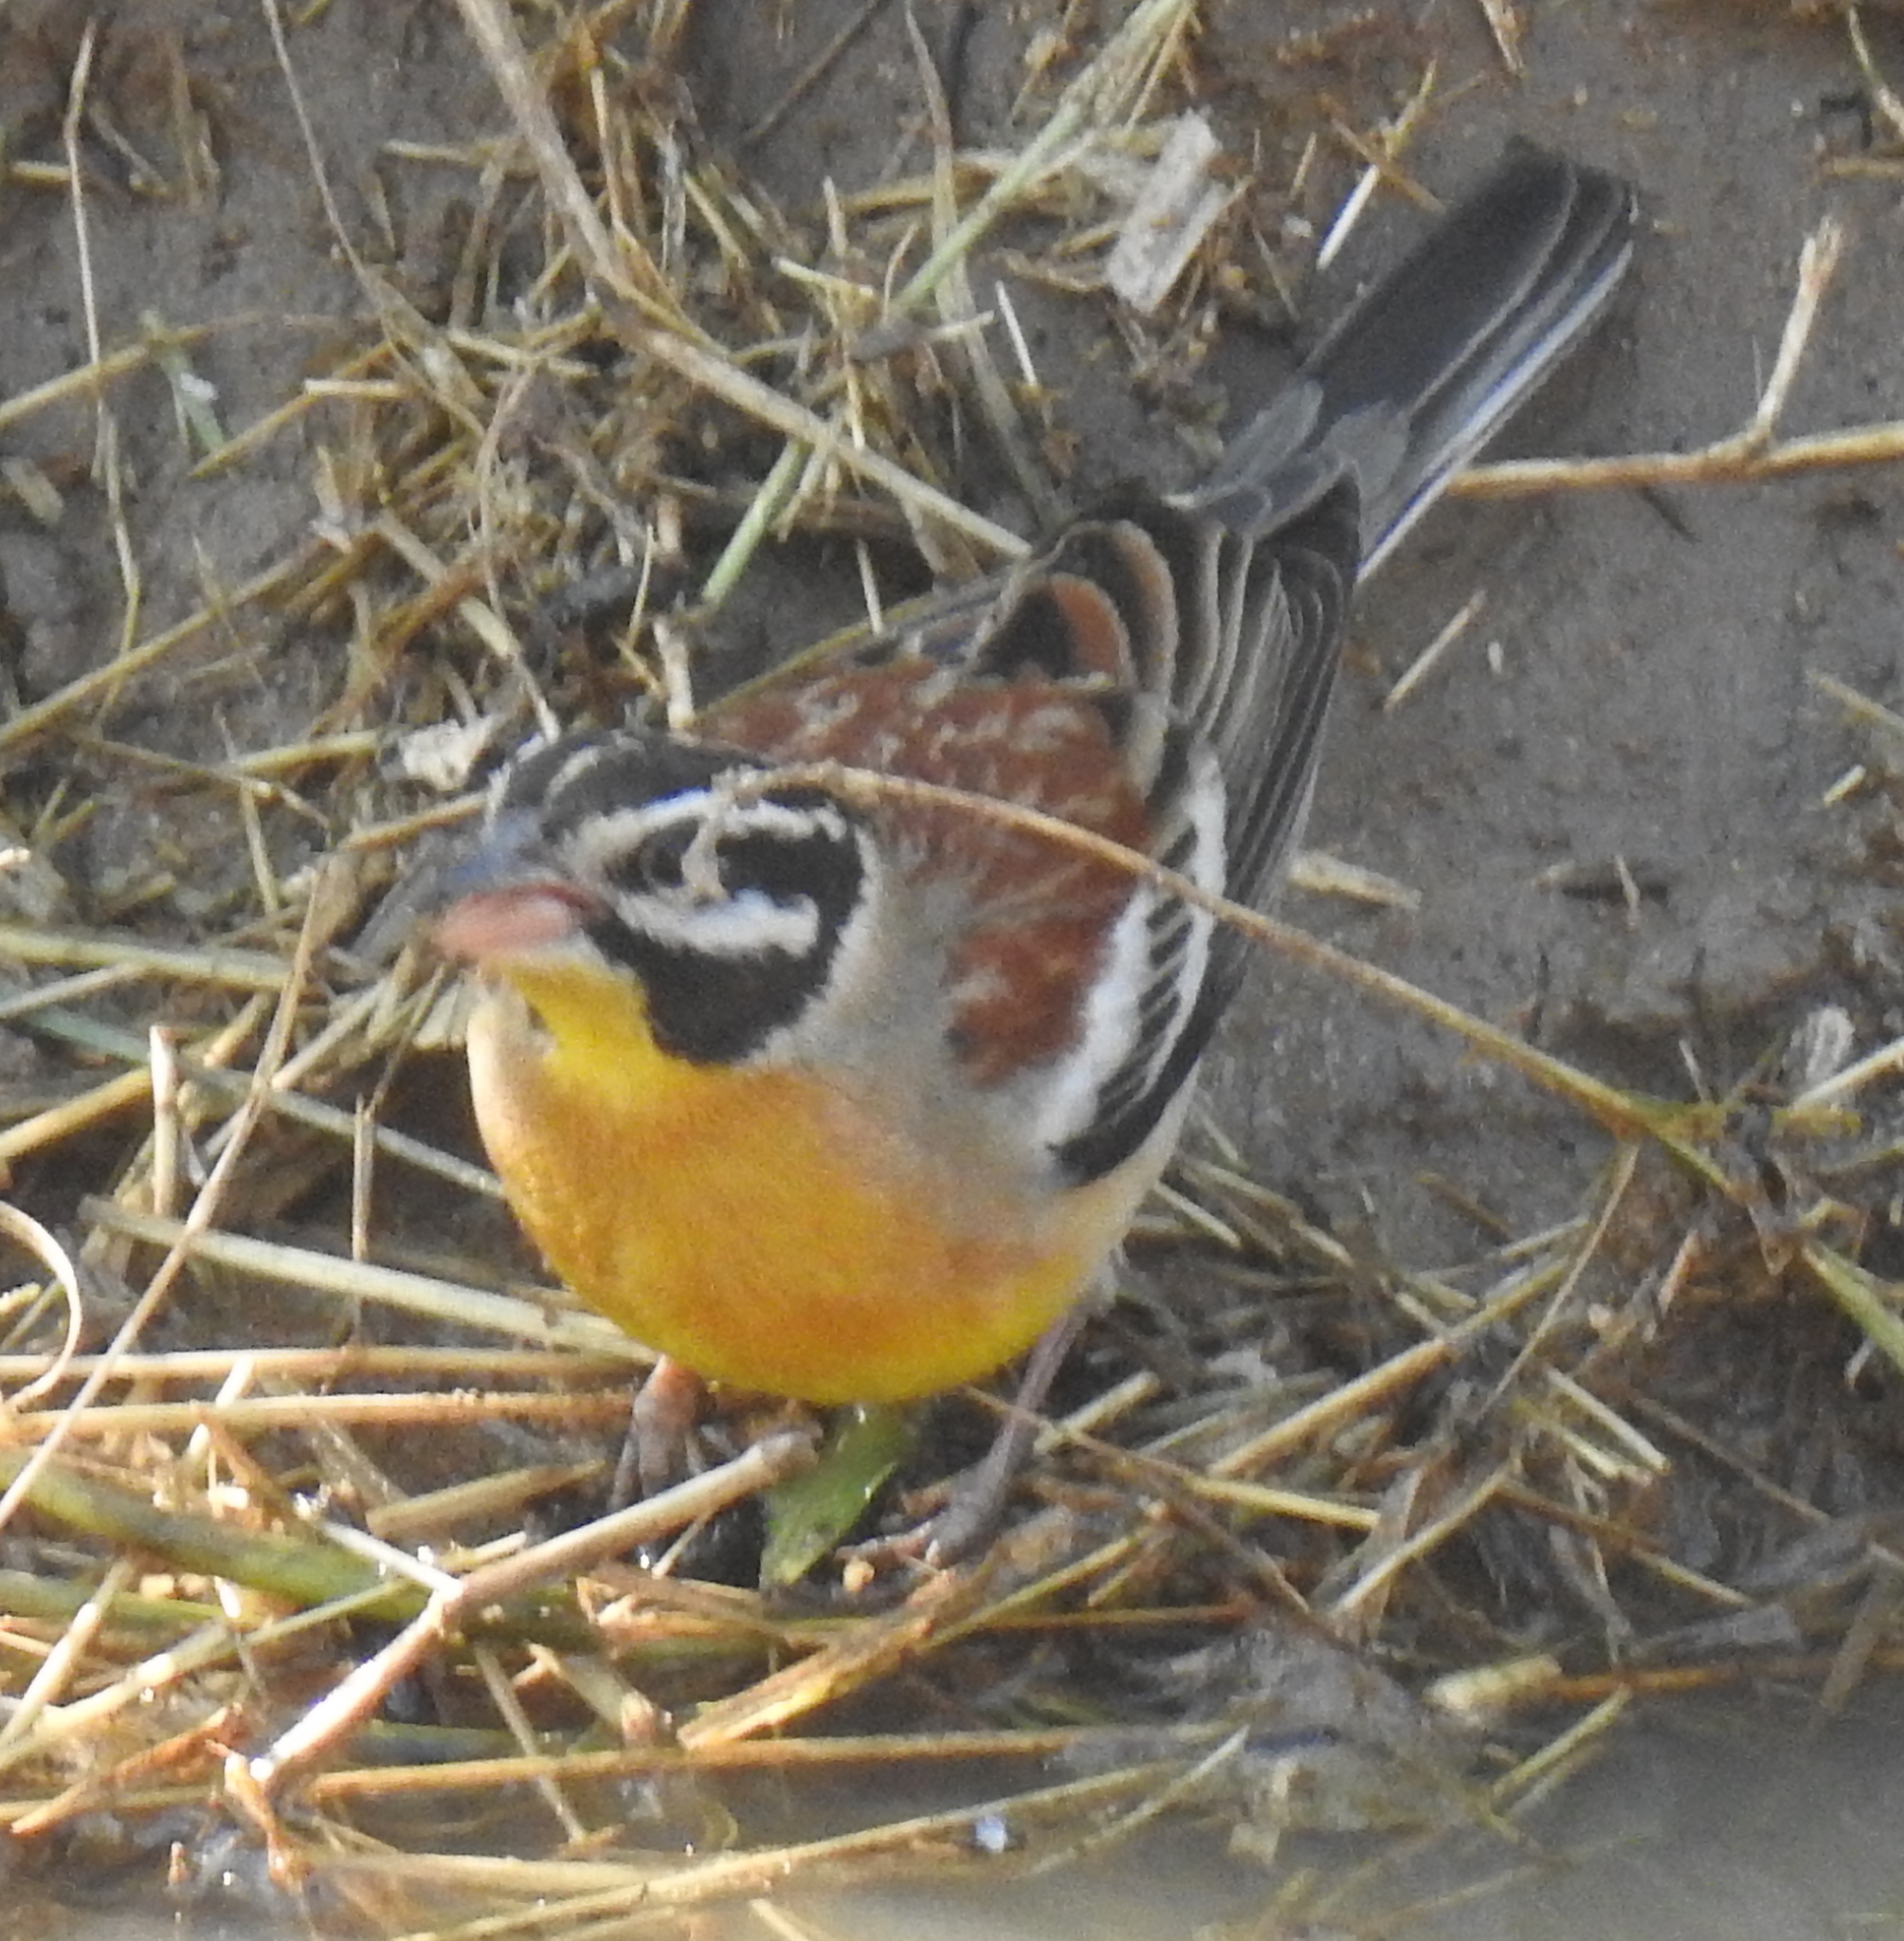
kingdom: Animalia
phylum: Chordata
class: Aves
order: Passeriformes
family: Emberizidae
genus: Emberiza
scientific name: Emberiza flaviventris
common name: Golden-breasted bunting
